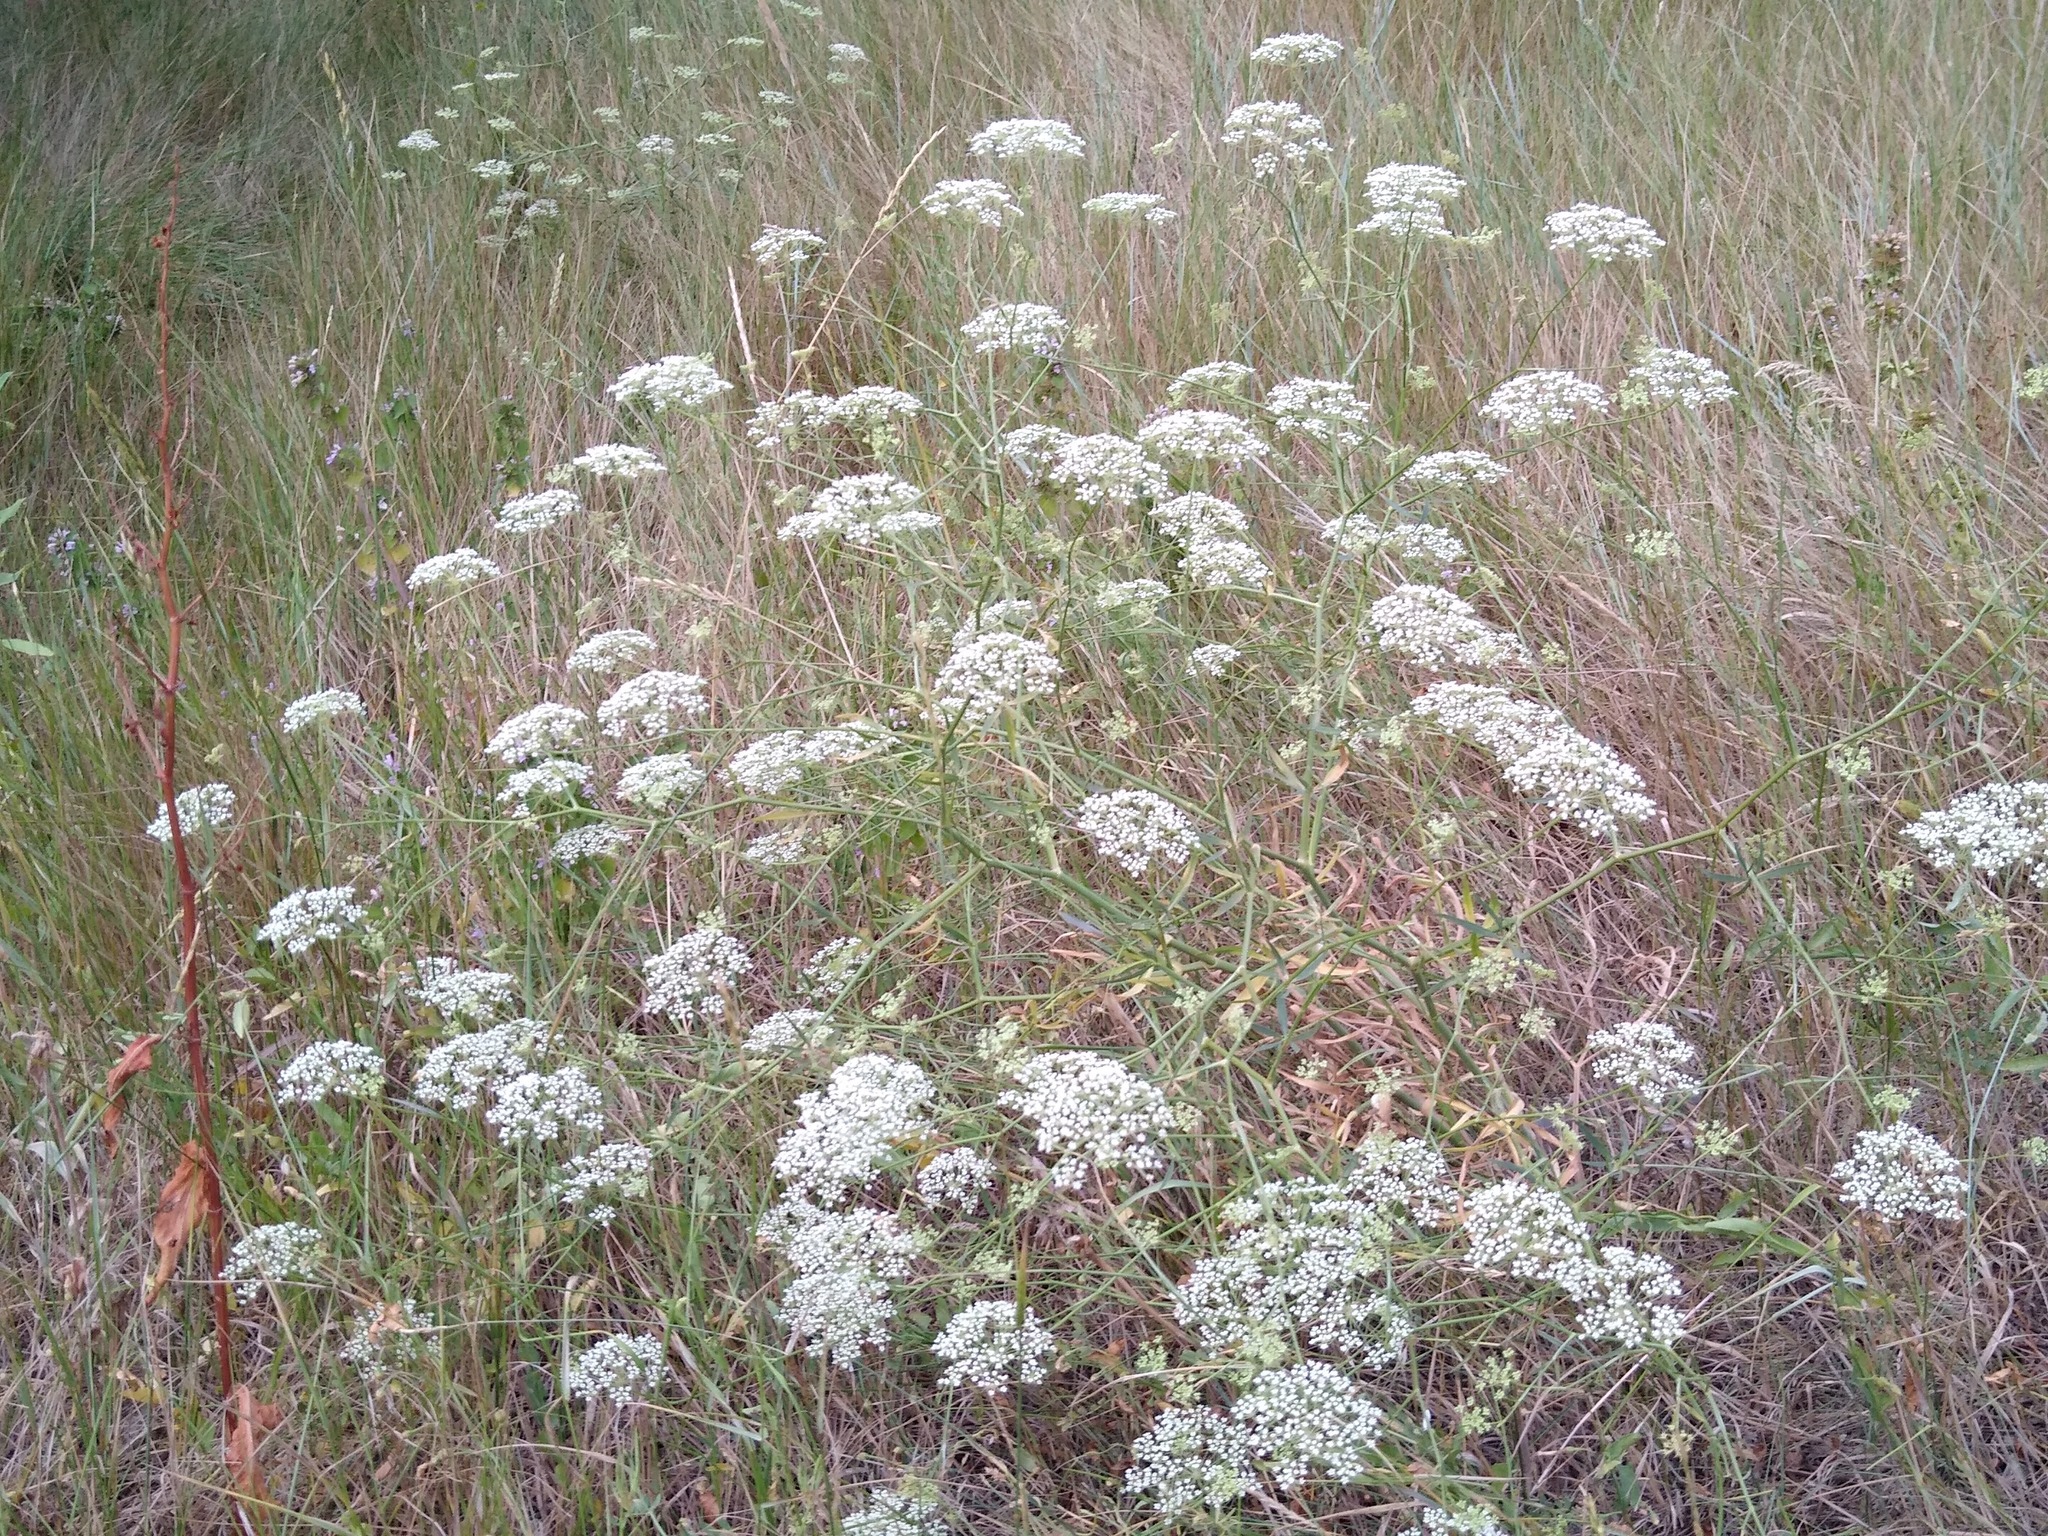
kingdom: Plantae
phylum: Tracheophyta
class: Magnoliopsida
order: Apiales
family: Apiaceae
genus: Falcaria
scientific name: Falcaria vulgaris
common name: Longleaf
